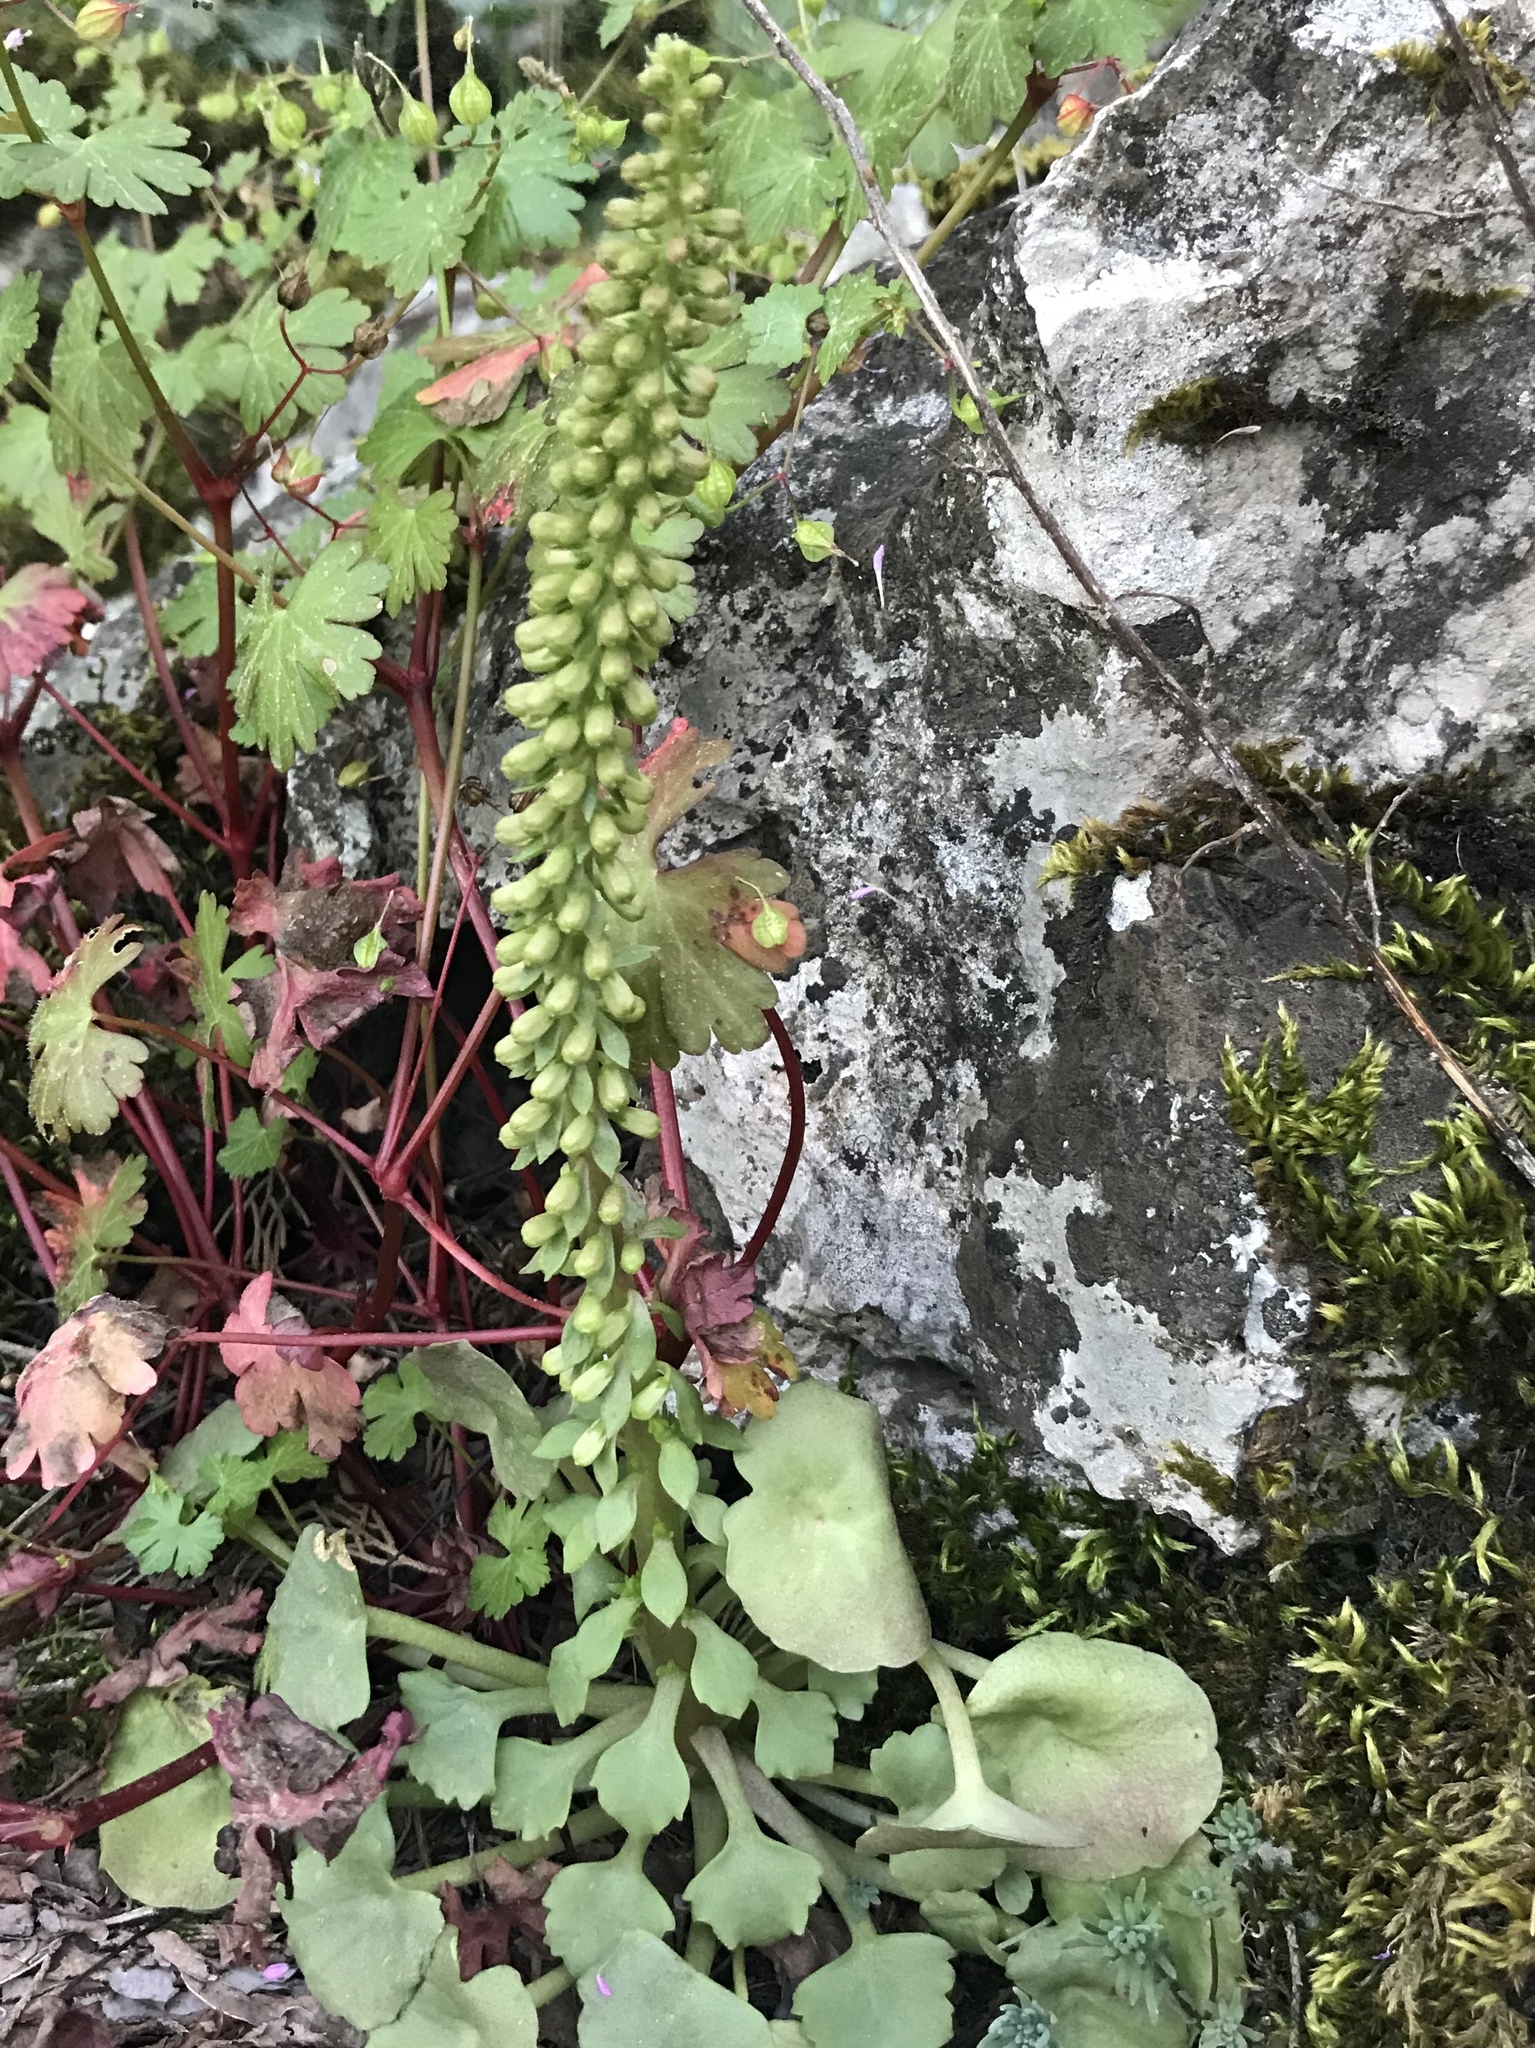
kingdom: Plantae
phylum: Tracheophyta
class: Magnoliopsida
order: Saxifragales
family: Crassulaceae
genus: Umbilicus
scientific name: Umbilicus rupestris
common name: Navelwort
